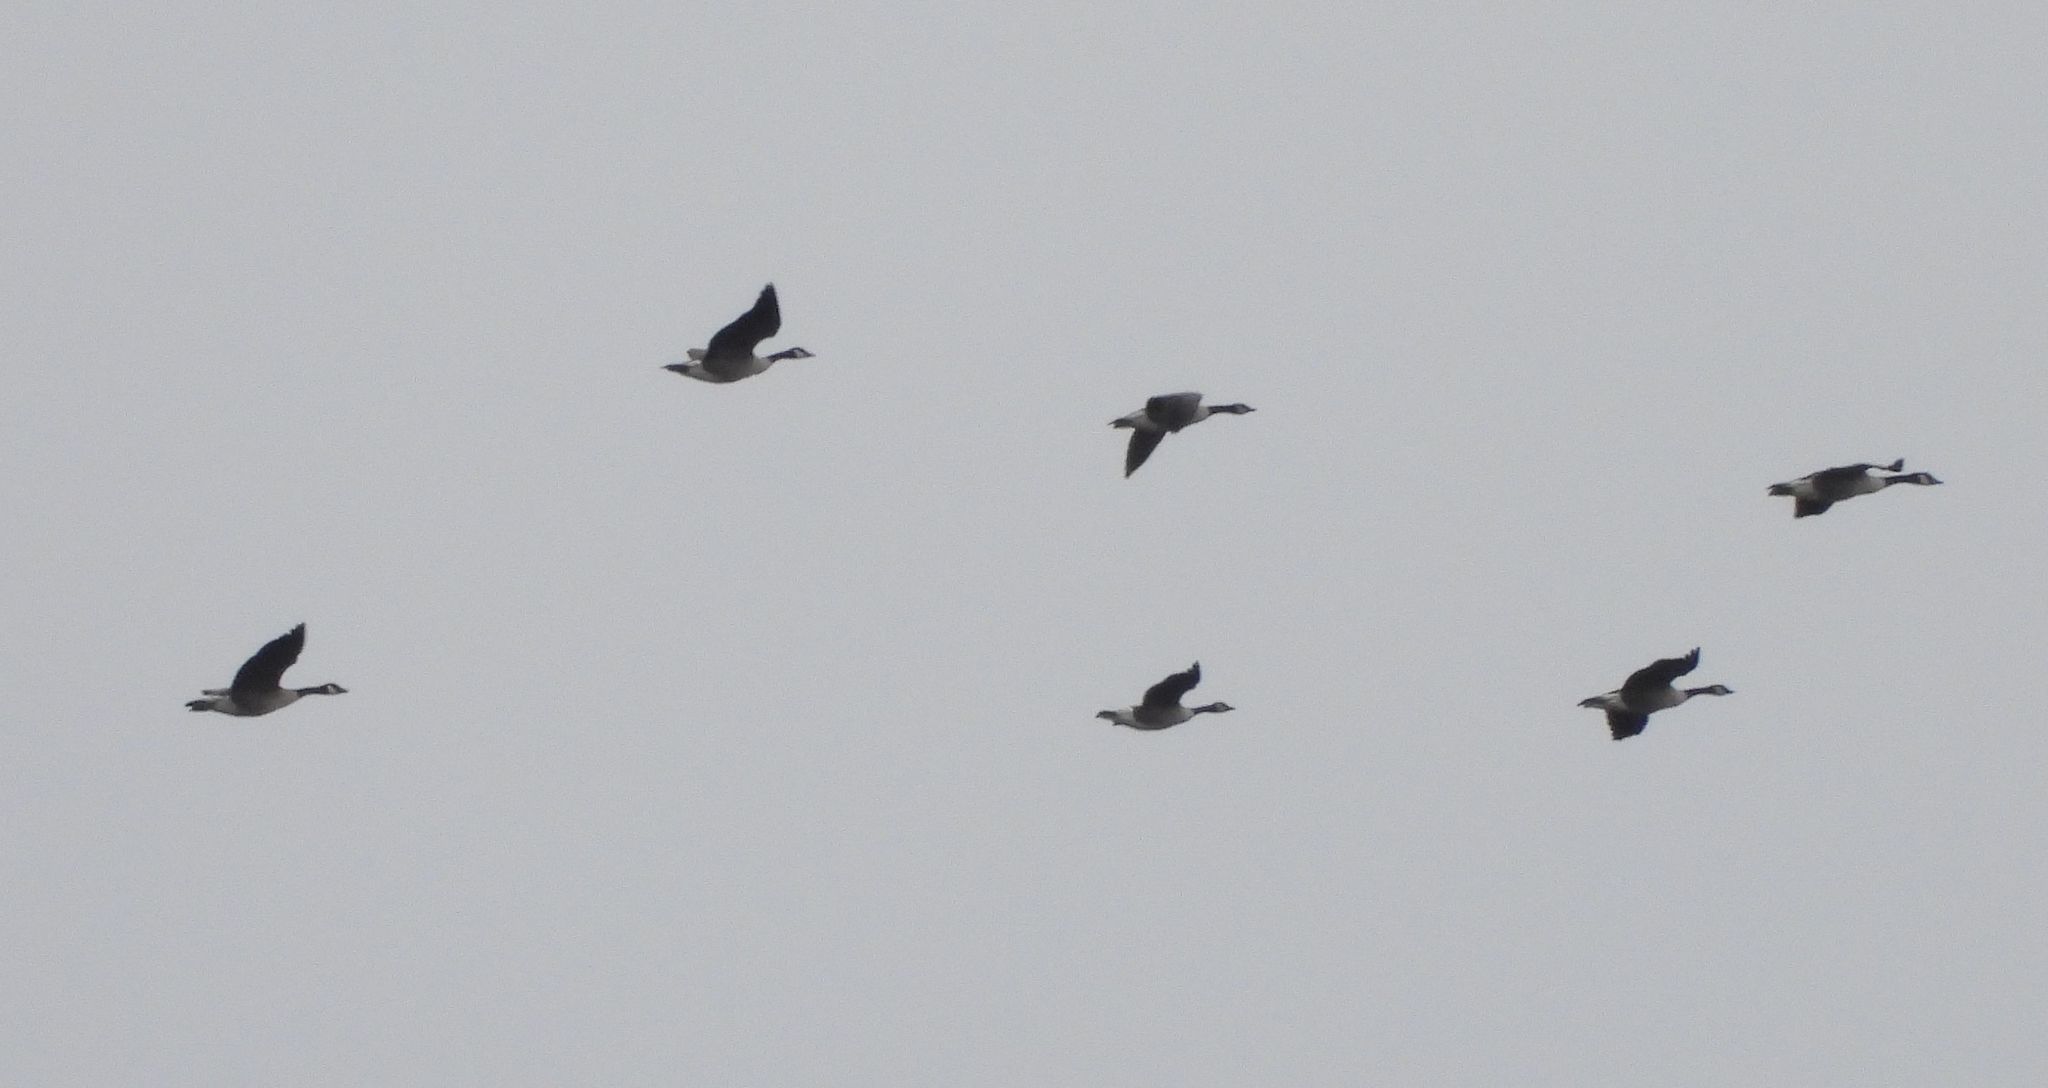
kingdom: Animalia
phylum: Chordata
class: Aves
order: Anseriformes
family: Anatidae
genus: Branta
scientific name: Branta canadensis
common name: Canada goose
